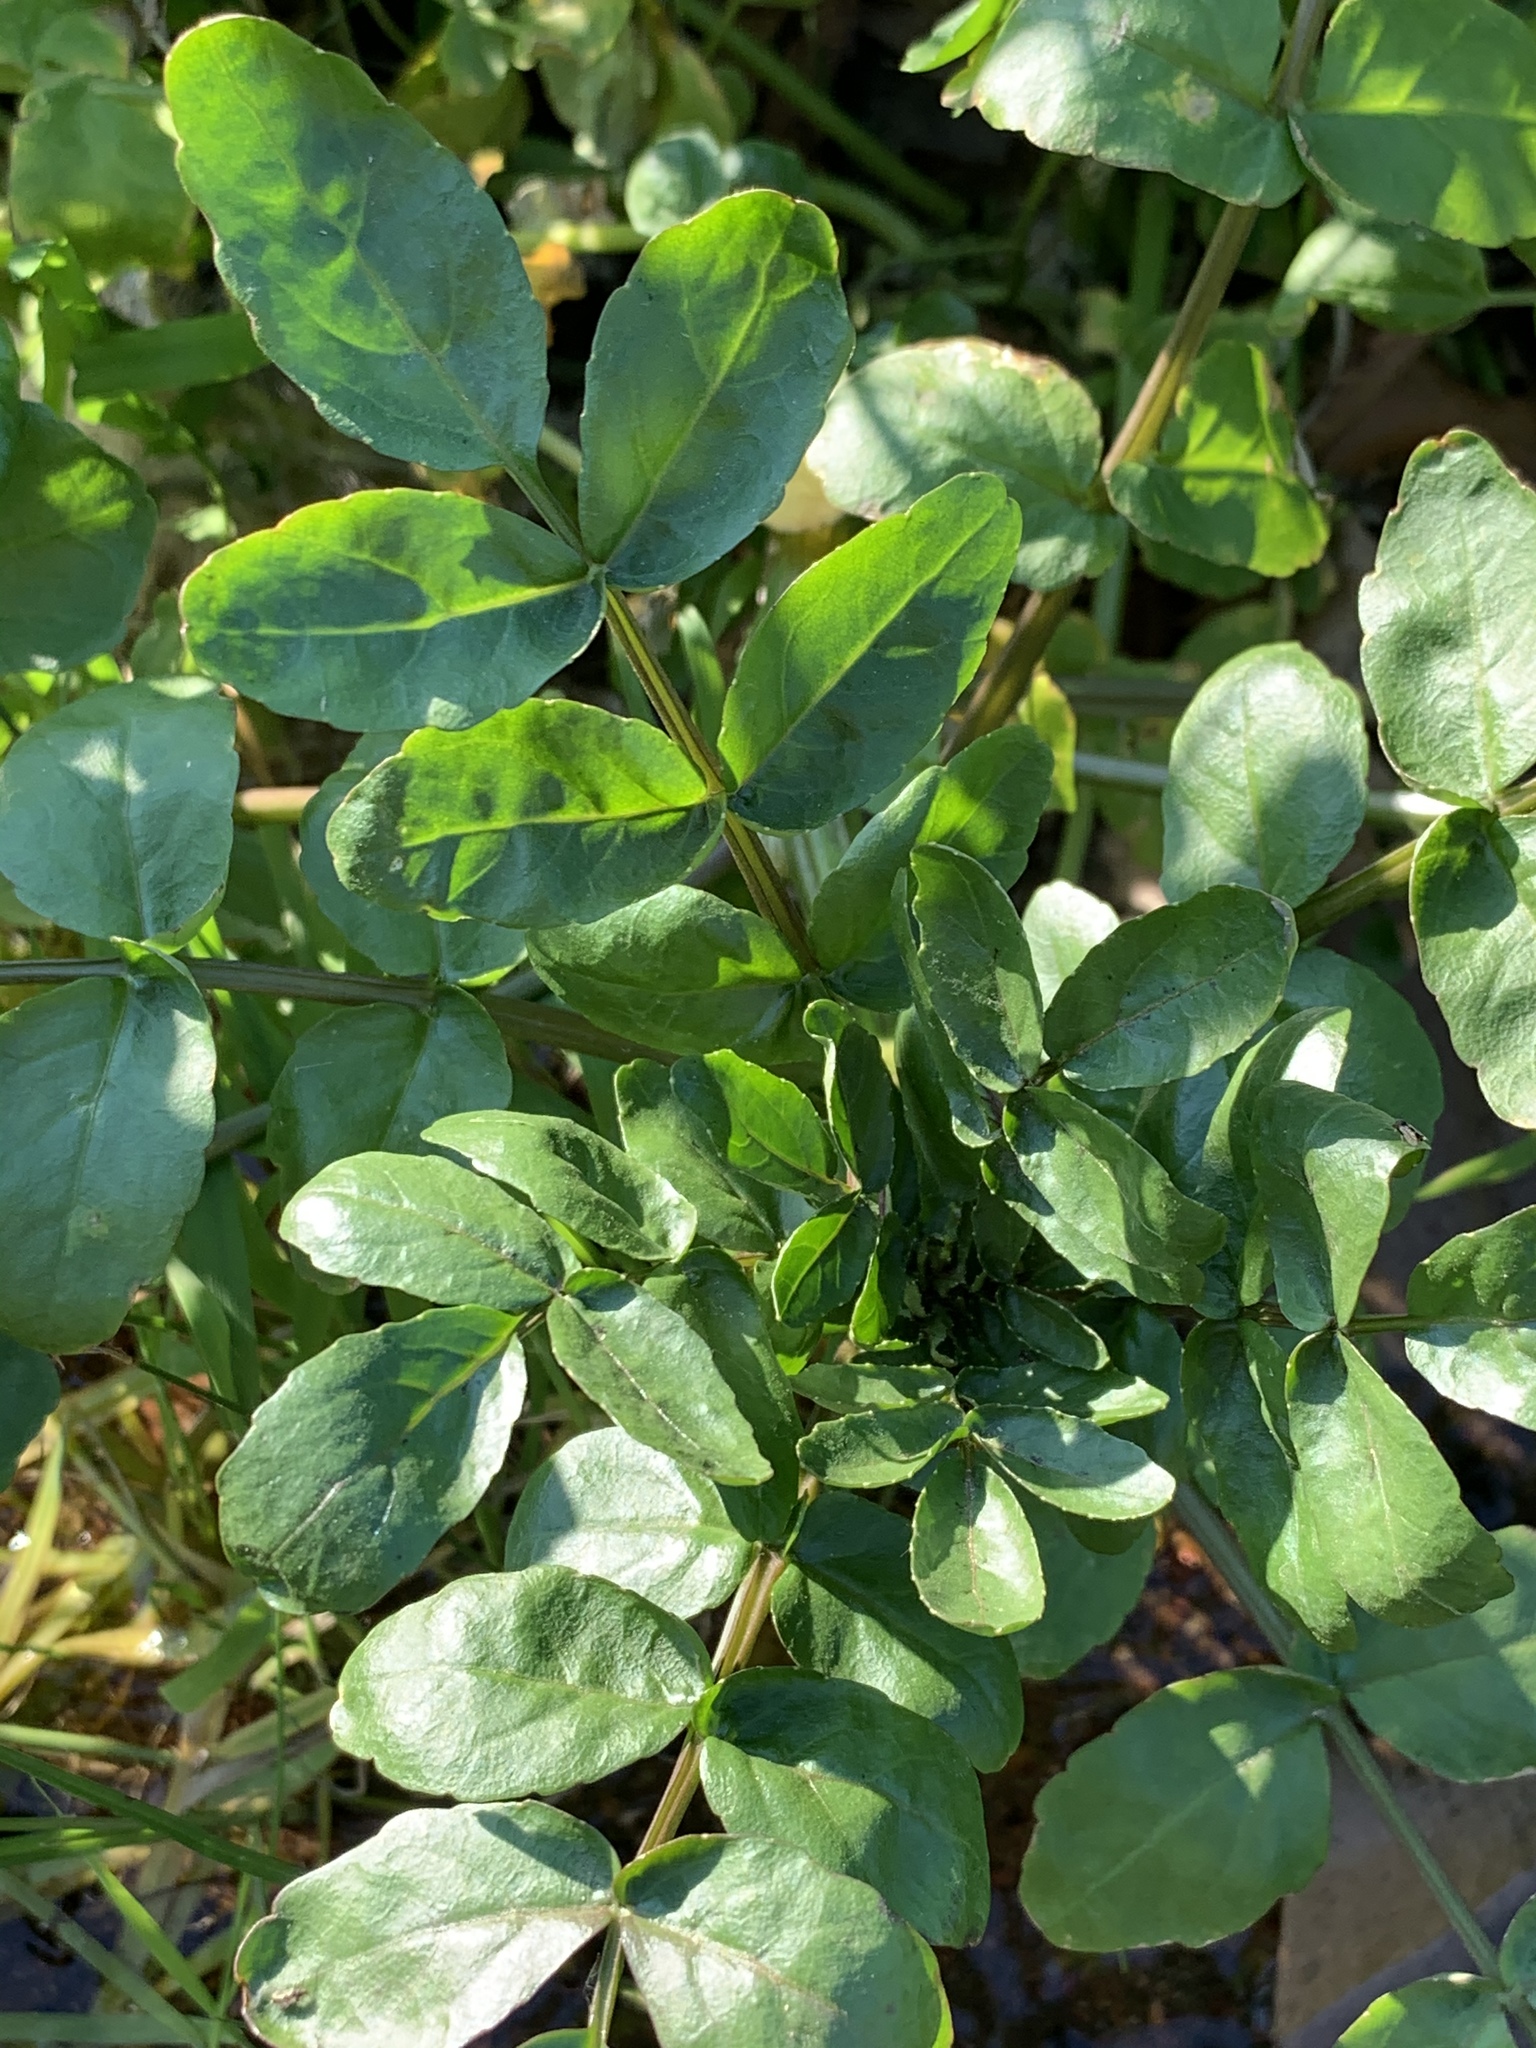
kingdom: Plantae
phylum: Tracheophyta
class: Magnoliopsida
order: Brassicales
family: Brassicaceae
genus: Nasturtium
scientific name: Nasturtium officinale
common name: Watercress
